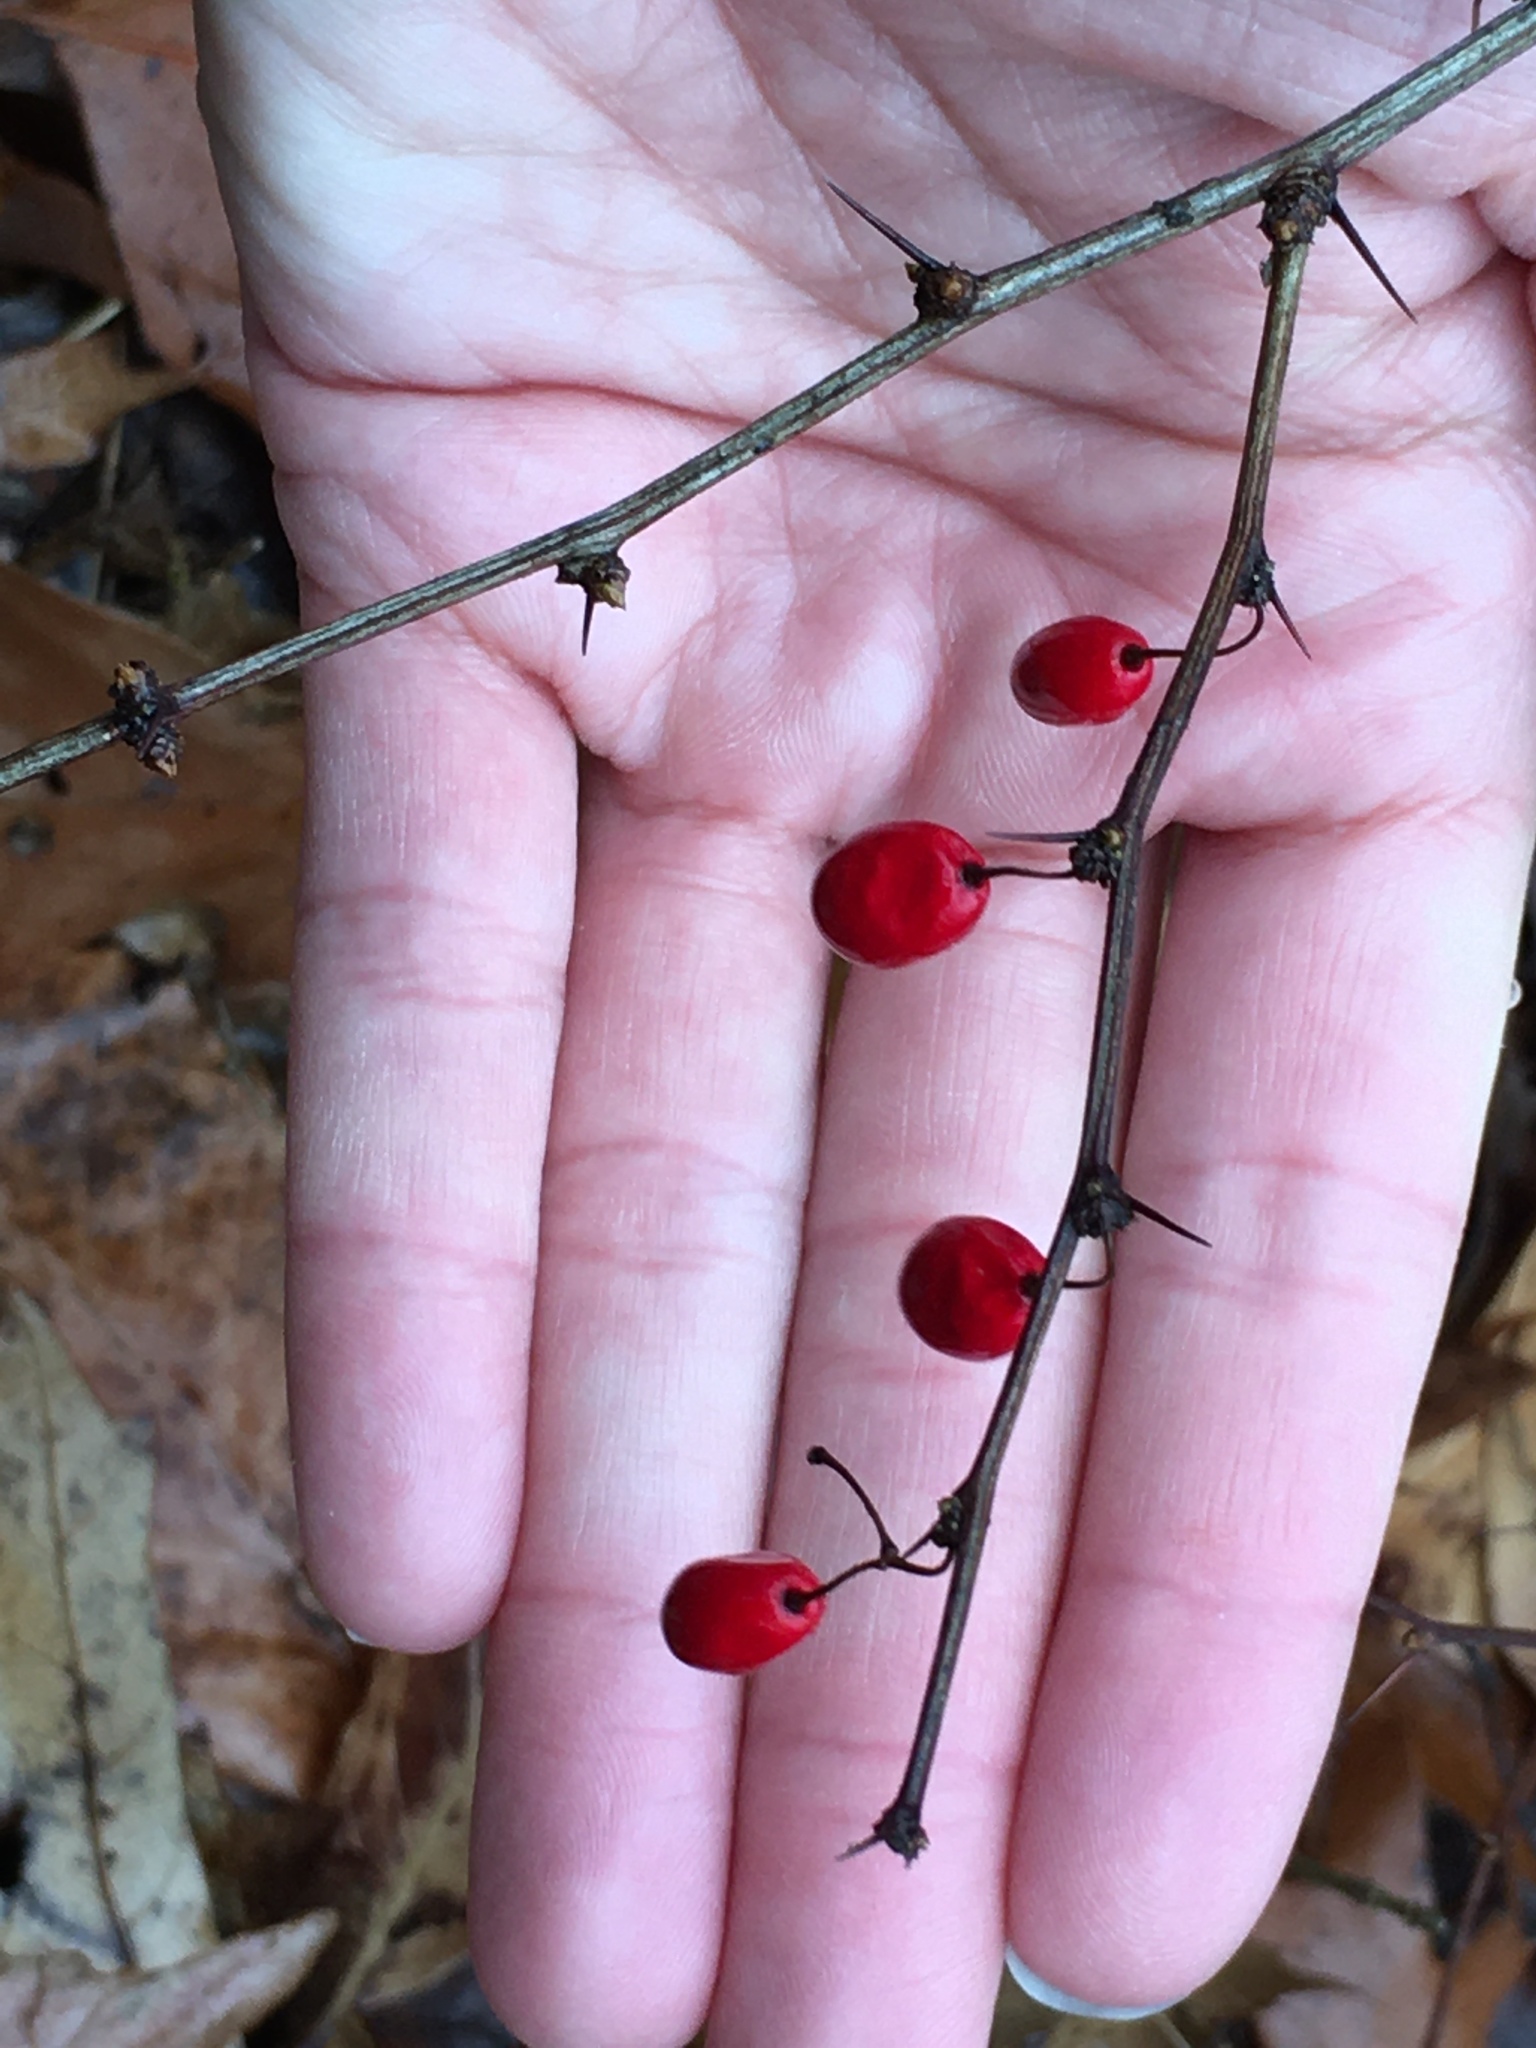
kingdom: Plantae
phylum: Tracheophyta
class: Magnoliopsida
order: Ranunculales
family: Berberidaceae
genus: Berberis
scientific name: Berberis thunbergii
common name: Japanese barberry
